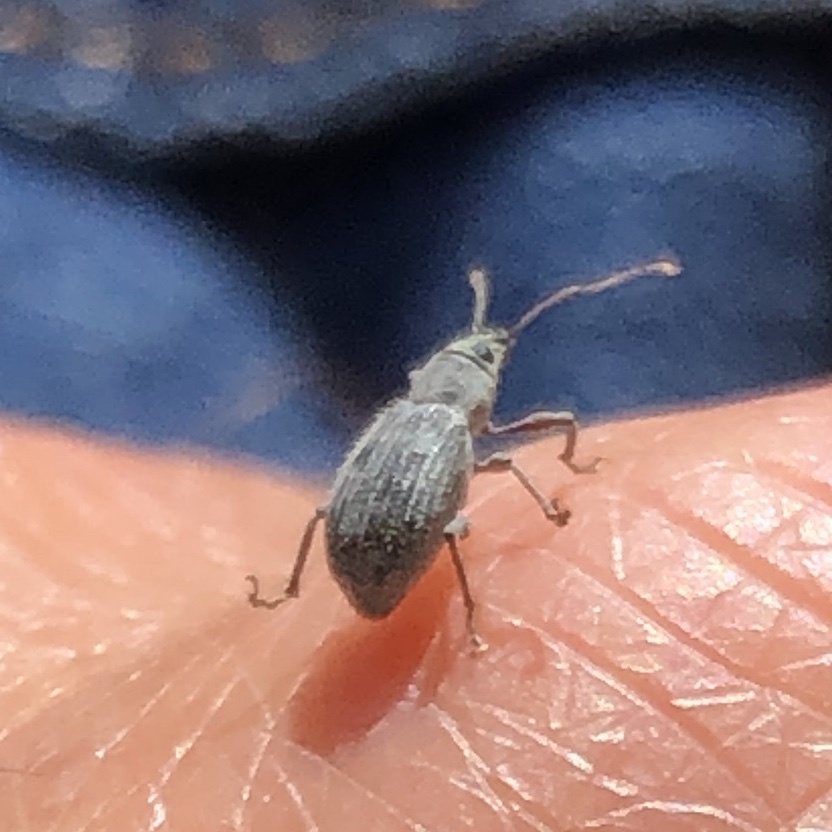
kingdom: Animalia
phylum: Arthropoda
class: Insecta
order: Coleoptera
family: Curculionidae
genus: Cyrtepistomus
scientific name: Cyrtepistomus castaneus
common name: Weevil
